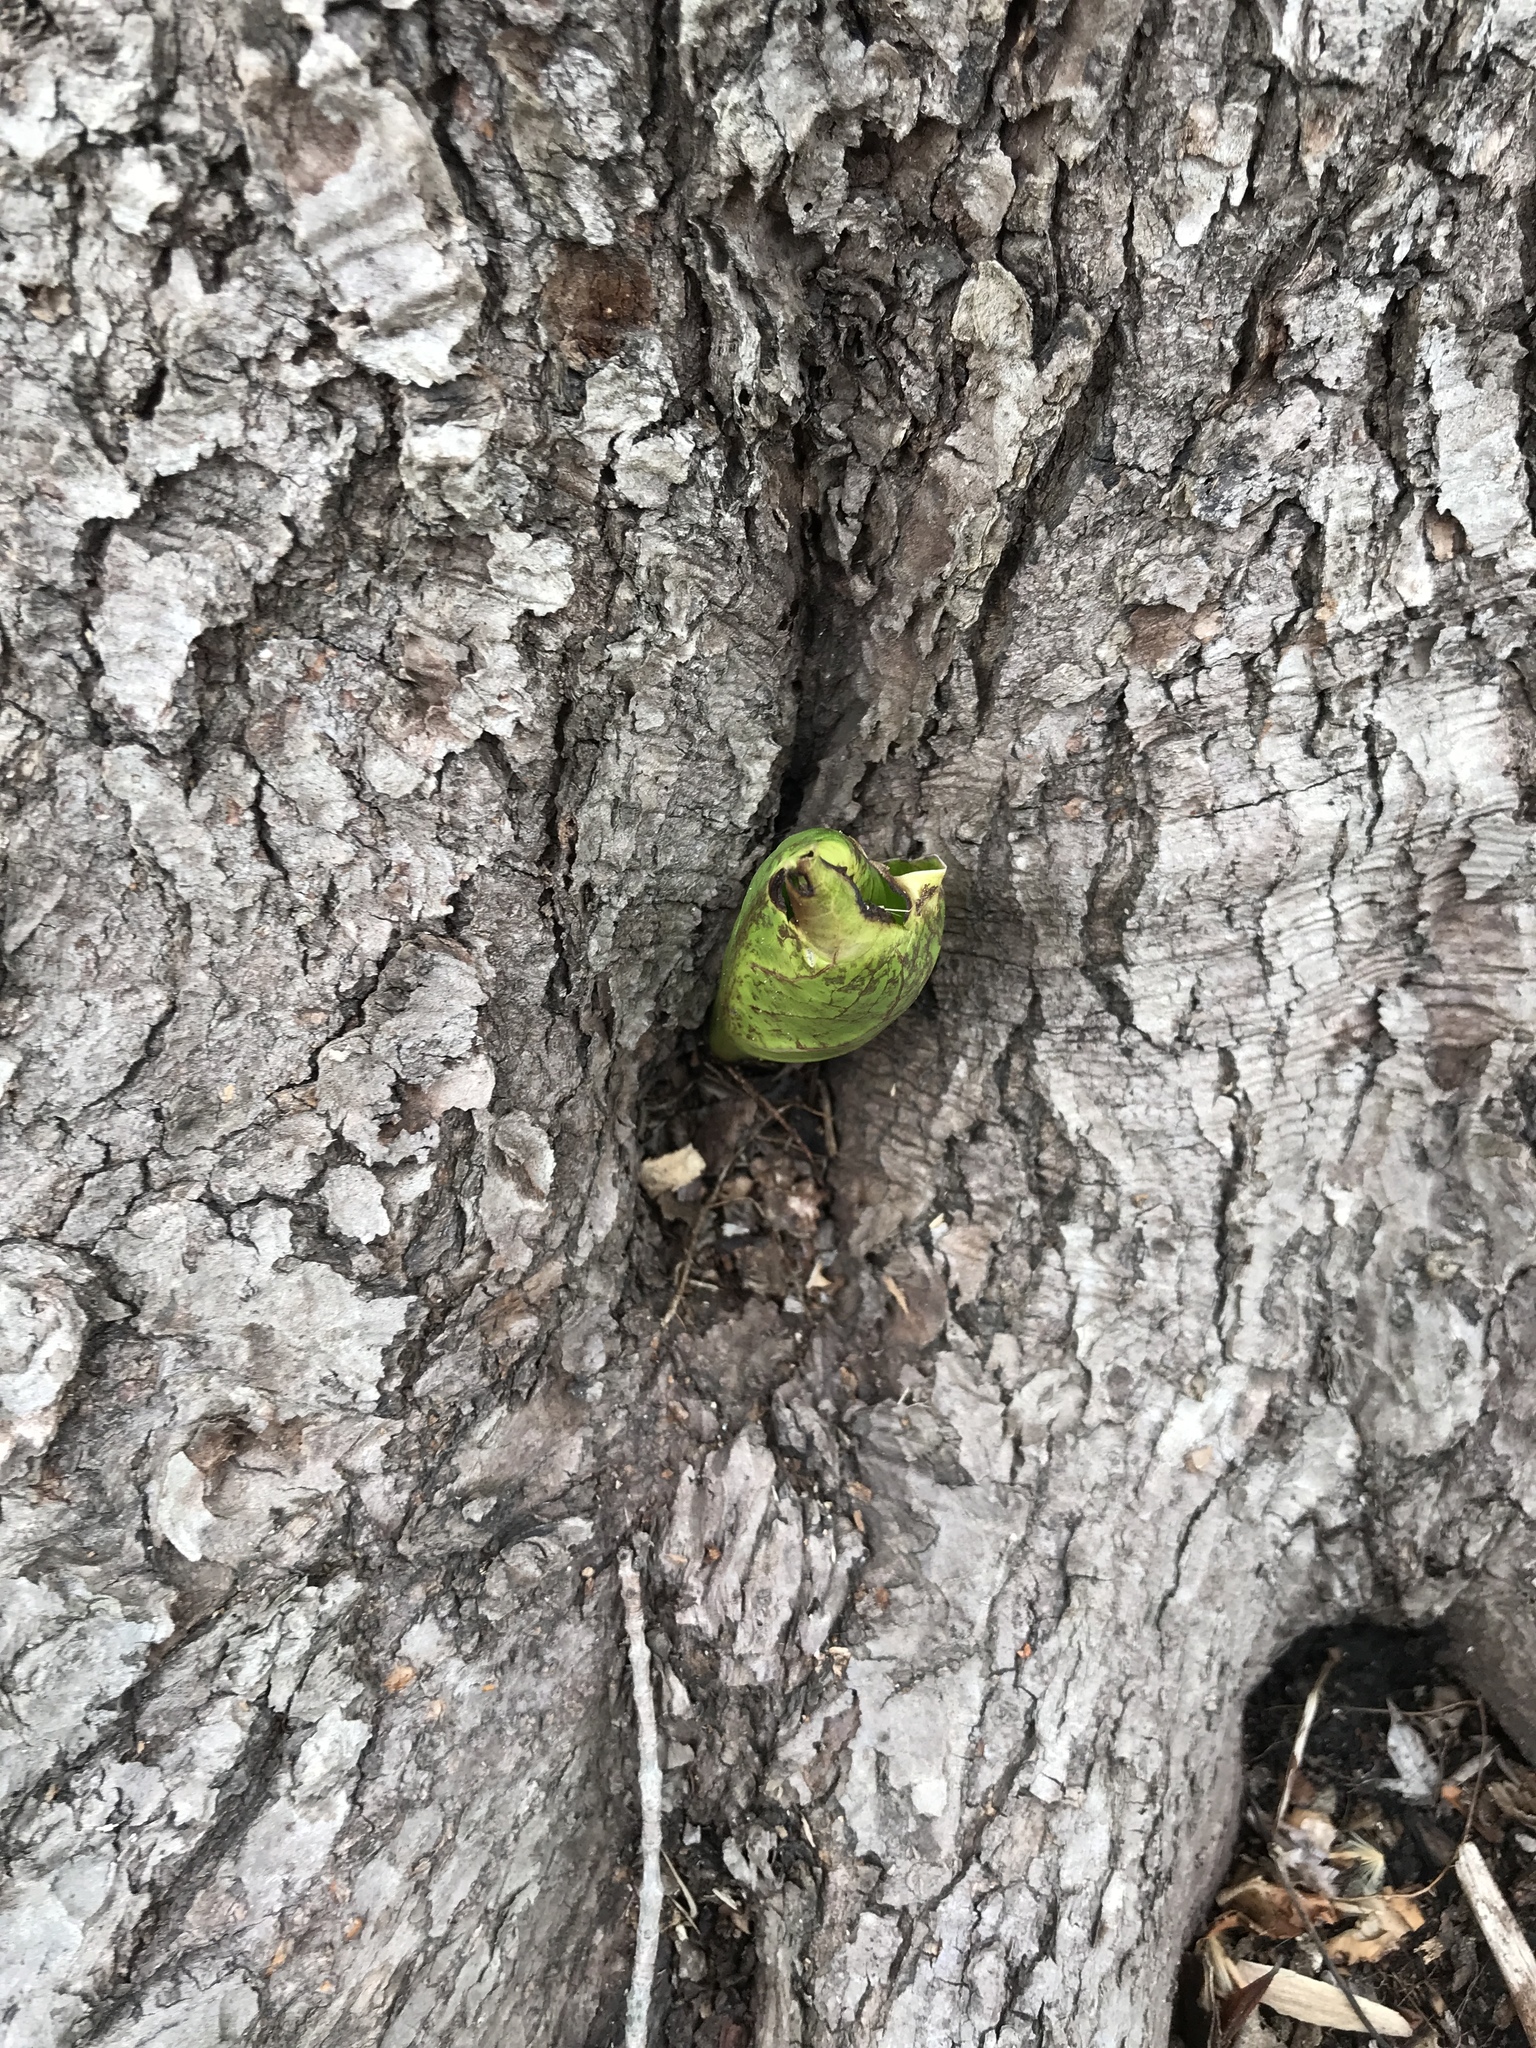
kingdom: Plantae
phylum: Tracheophyta
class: Liliopsida
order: Alismatales
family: Araceae
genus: Symplocarpus
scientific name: Symplocarpus foetidus
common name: Eastern skunk cabbage
